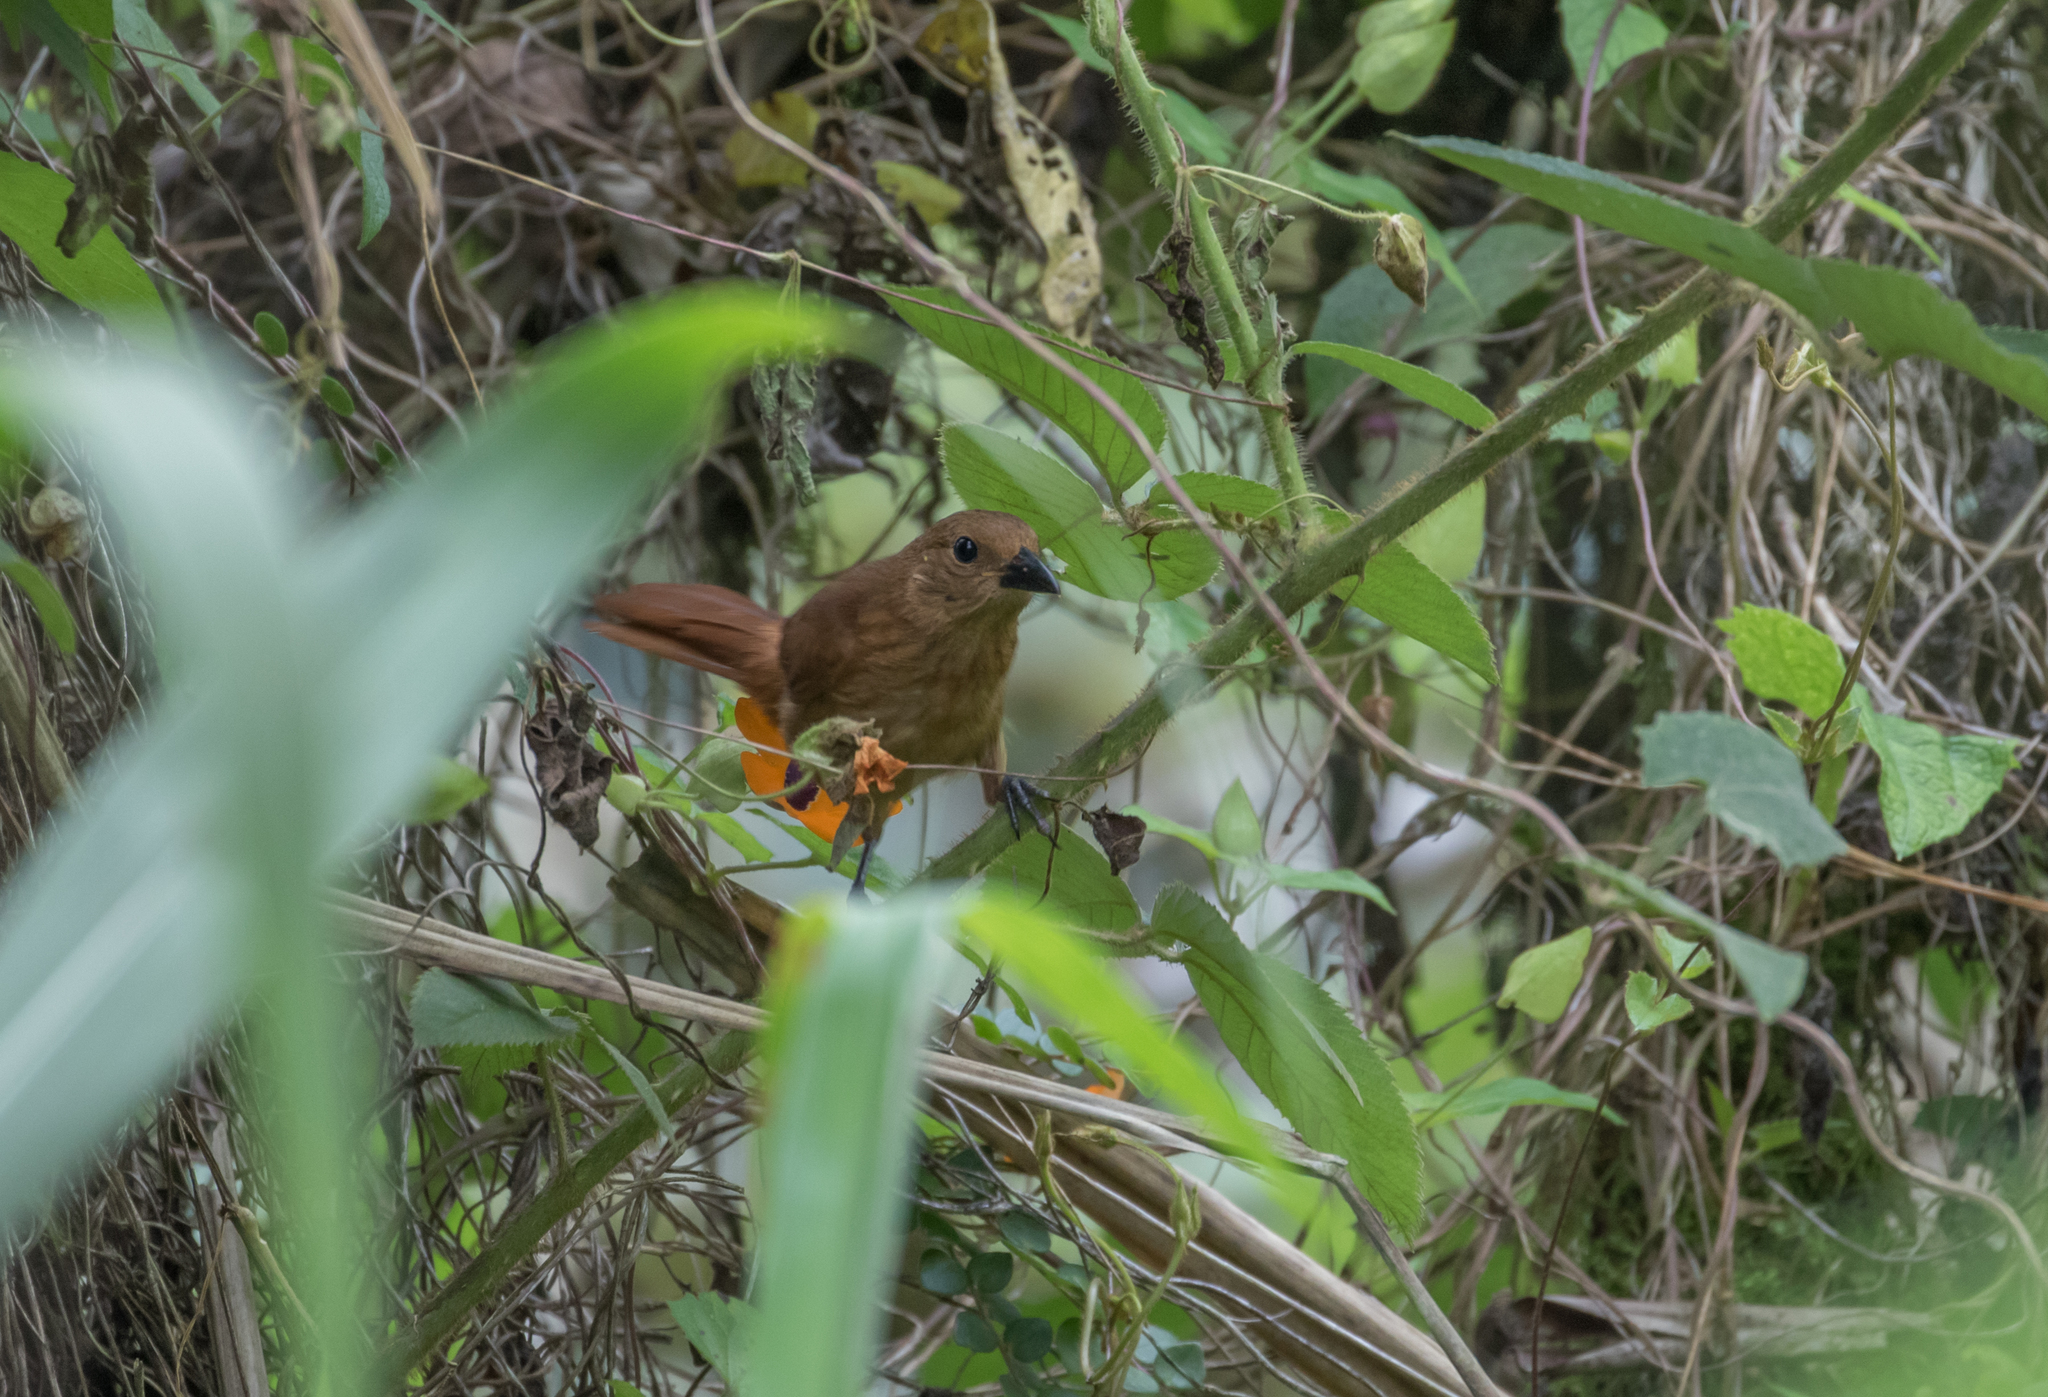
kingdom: Animalia
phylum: Chordata
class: Aves
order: Passeriformes
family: Thraupidae
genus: Tachyphonus
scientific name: Tachyphonus rufus
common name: White-lined tanager
